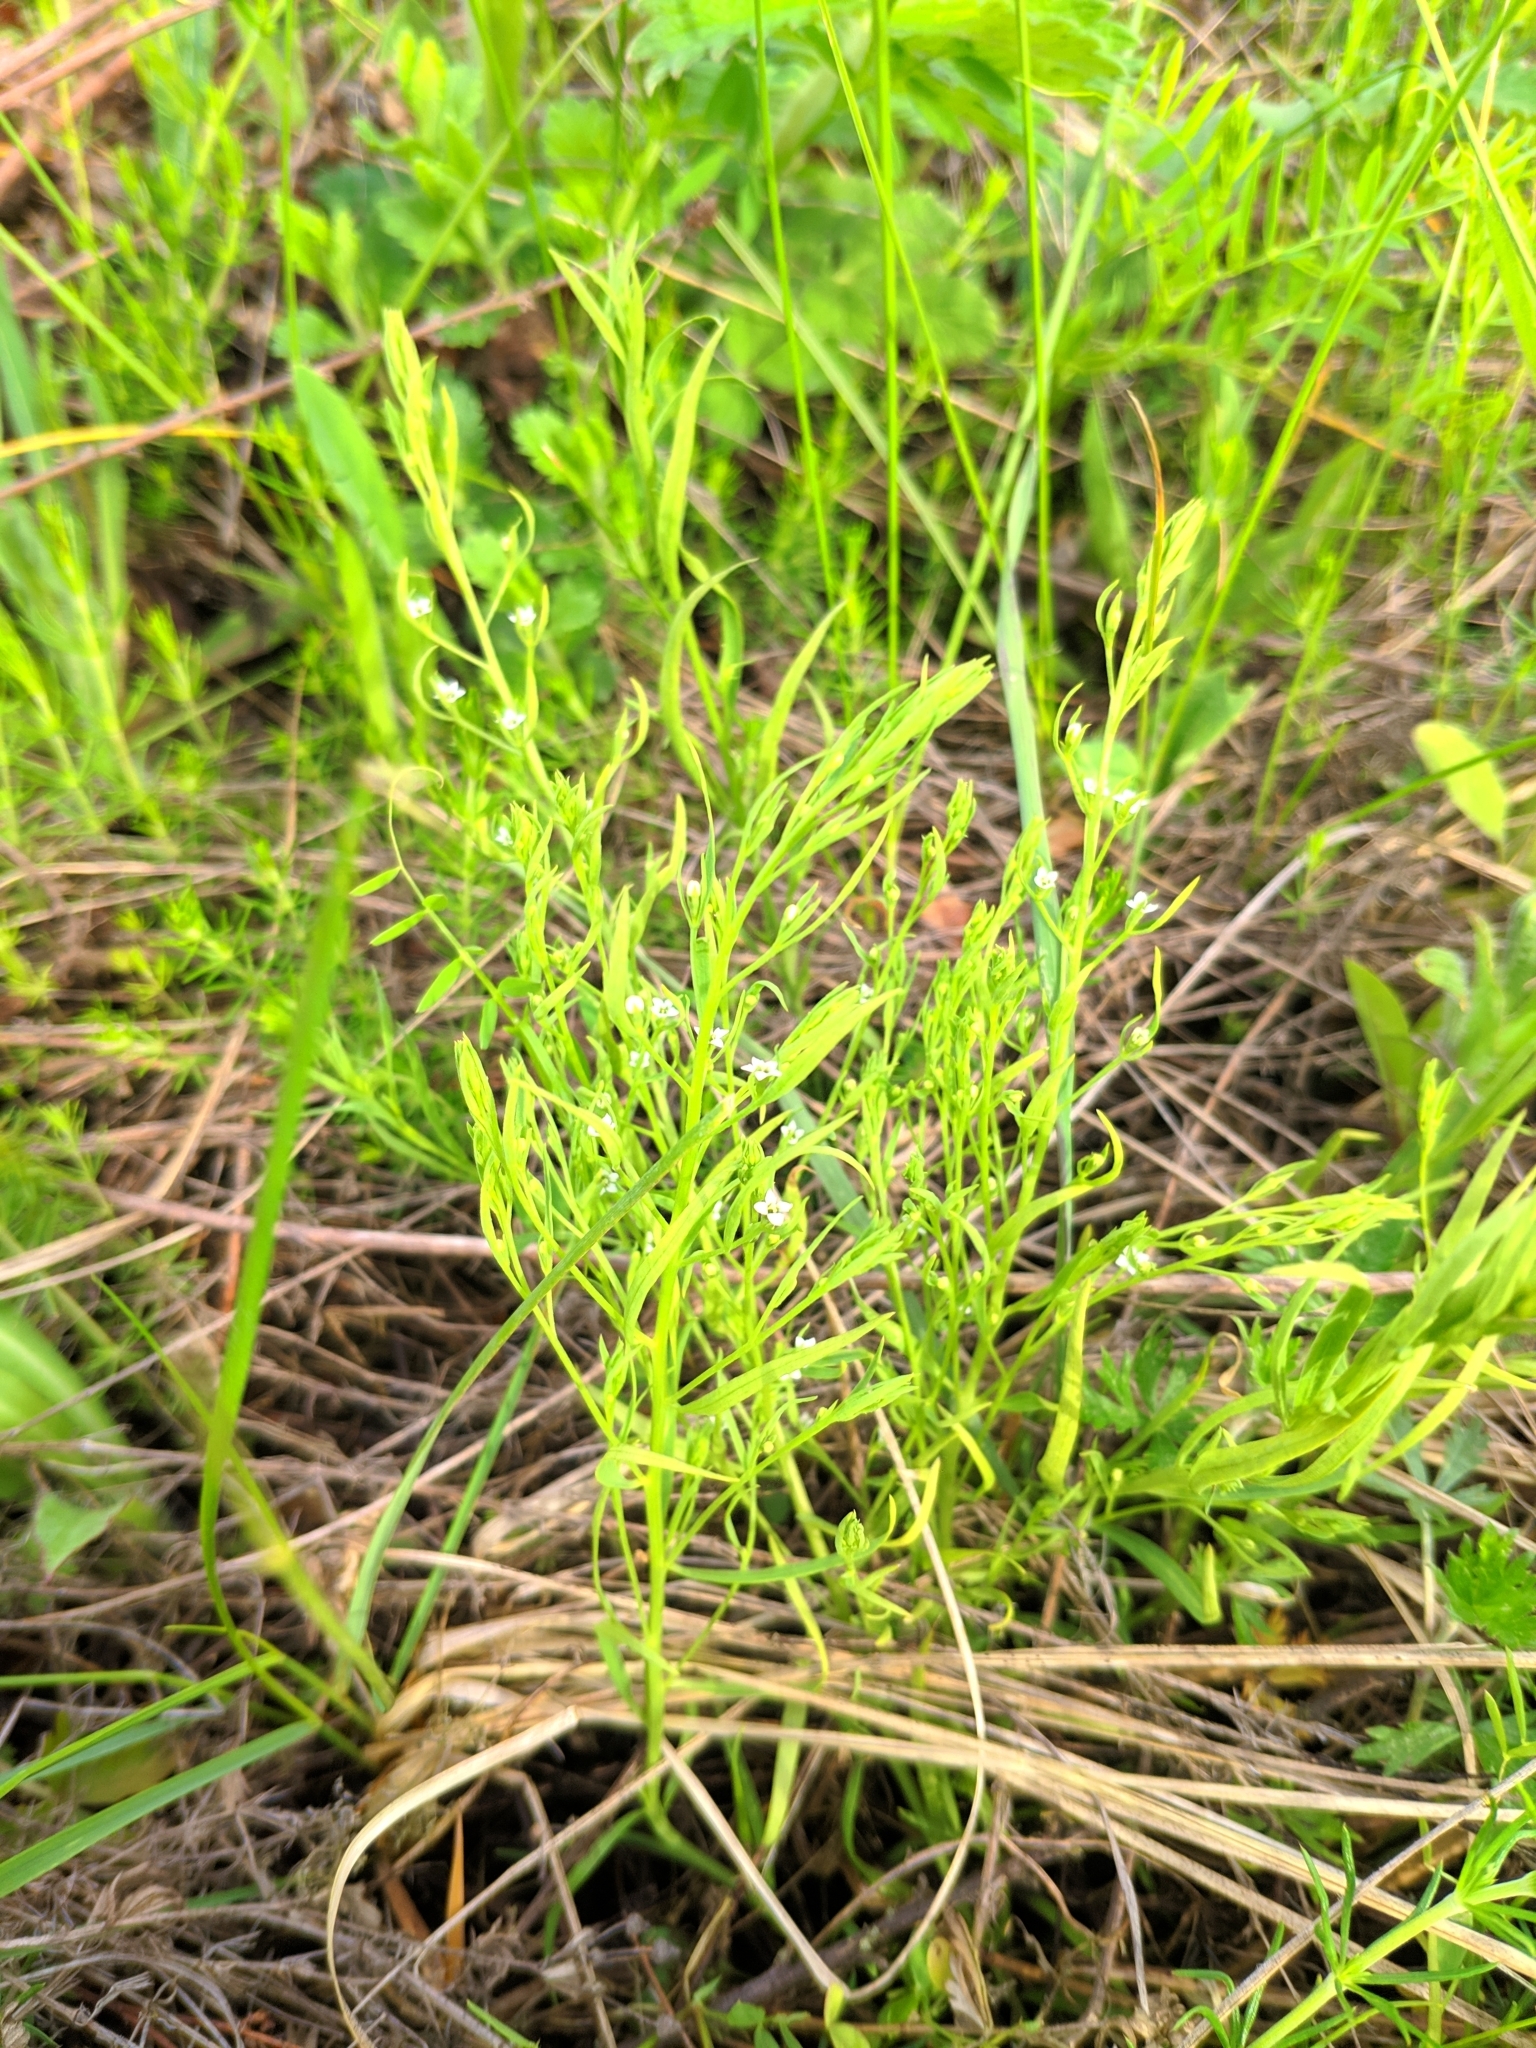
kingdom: Plantae
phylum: Tracheophyta
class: Magnoliopsida
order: Santalales
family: Thesiaceae
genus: Thesium
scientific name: Thesium ramosum
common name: Field thesium
